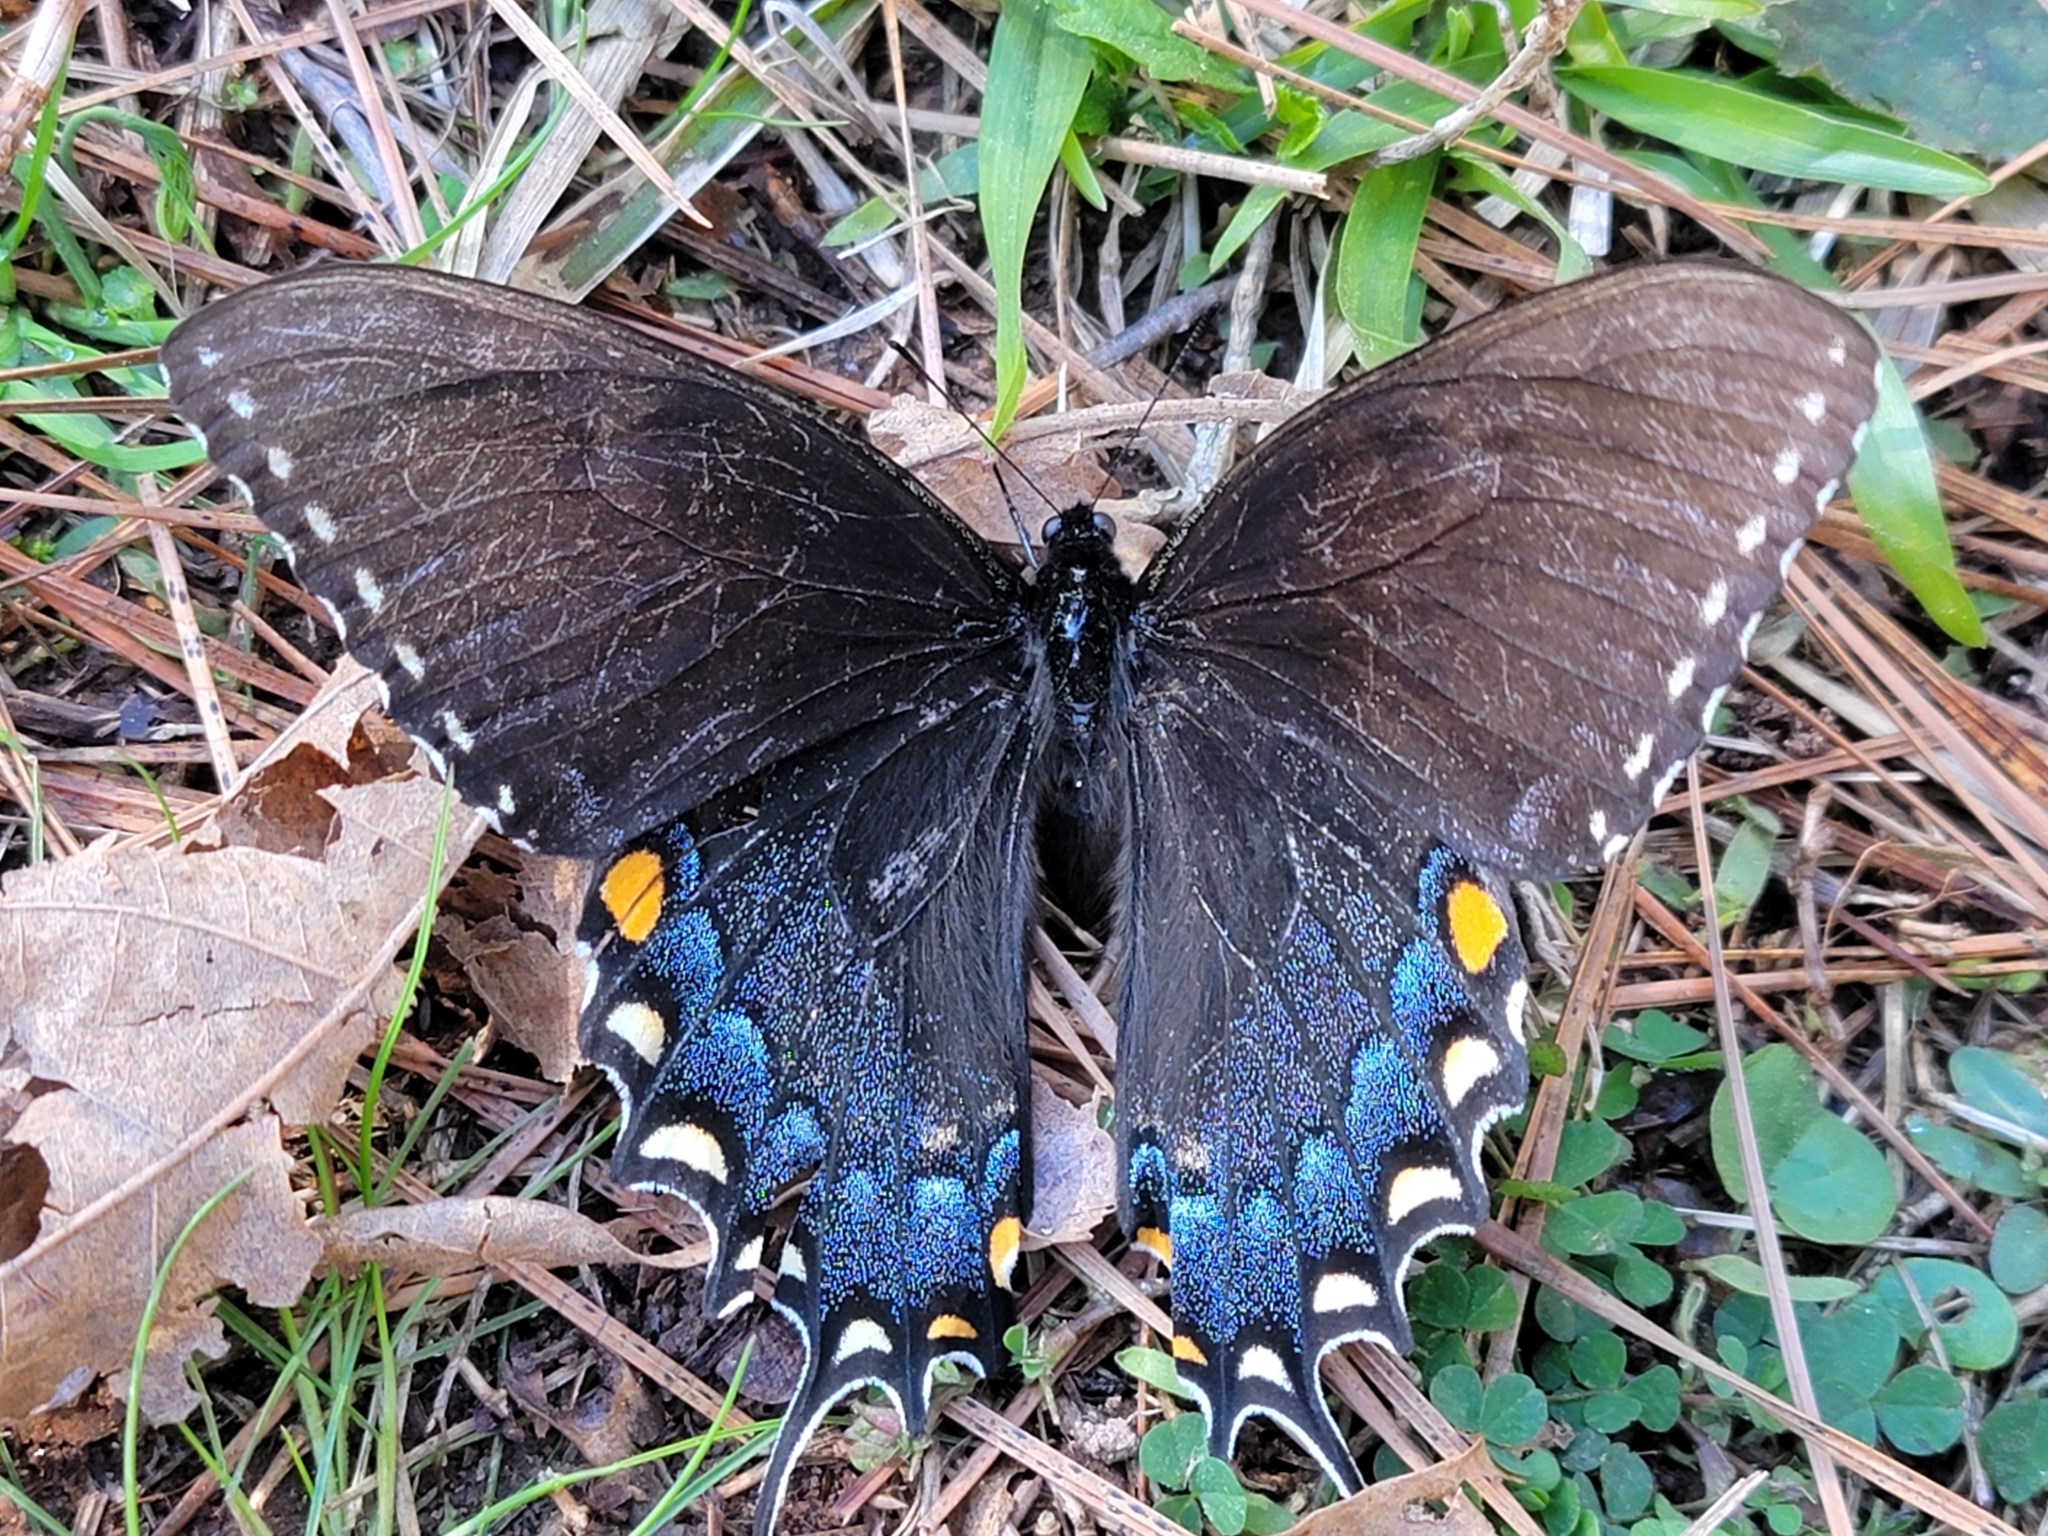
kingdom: Animalia
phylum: Arthropoda
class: Insecta
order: Lepidoptera
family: Papilionidae
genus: Papilio
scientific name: Papilio glaucus
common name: Tiger swallowtail
